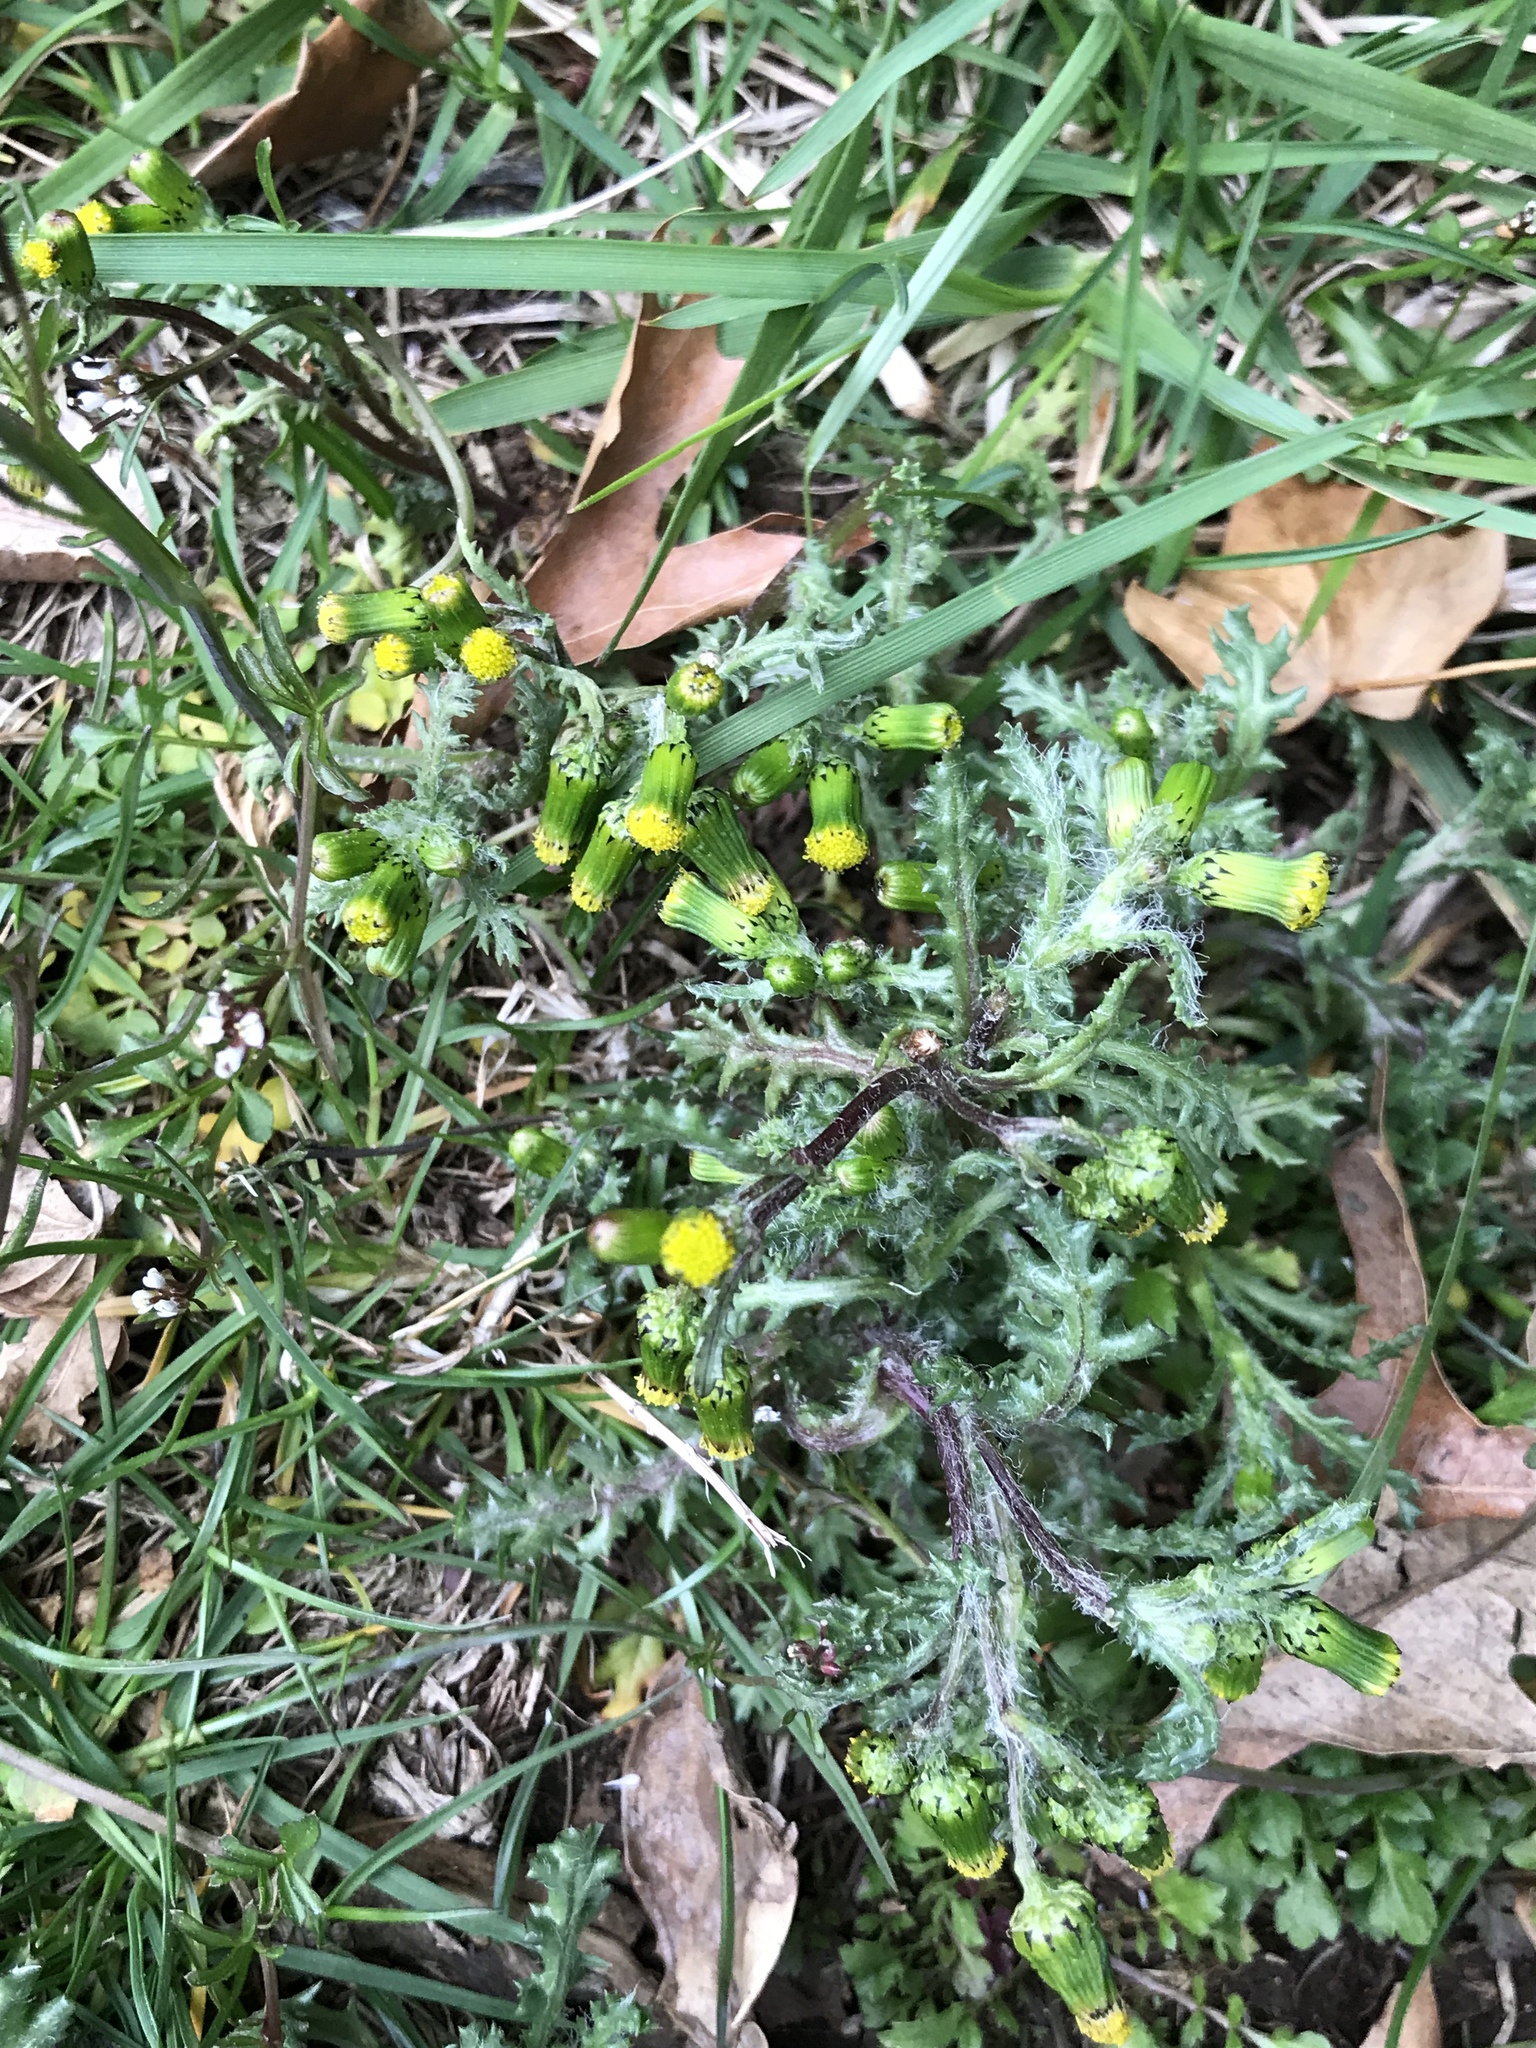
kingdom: Plantae
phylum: Tracheophyta
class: Magnoliopsida
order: Asterales
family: Asteraceae
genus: Senecio
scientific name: Senecio vulgaris
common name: Old-man-in-the-spring
